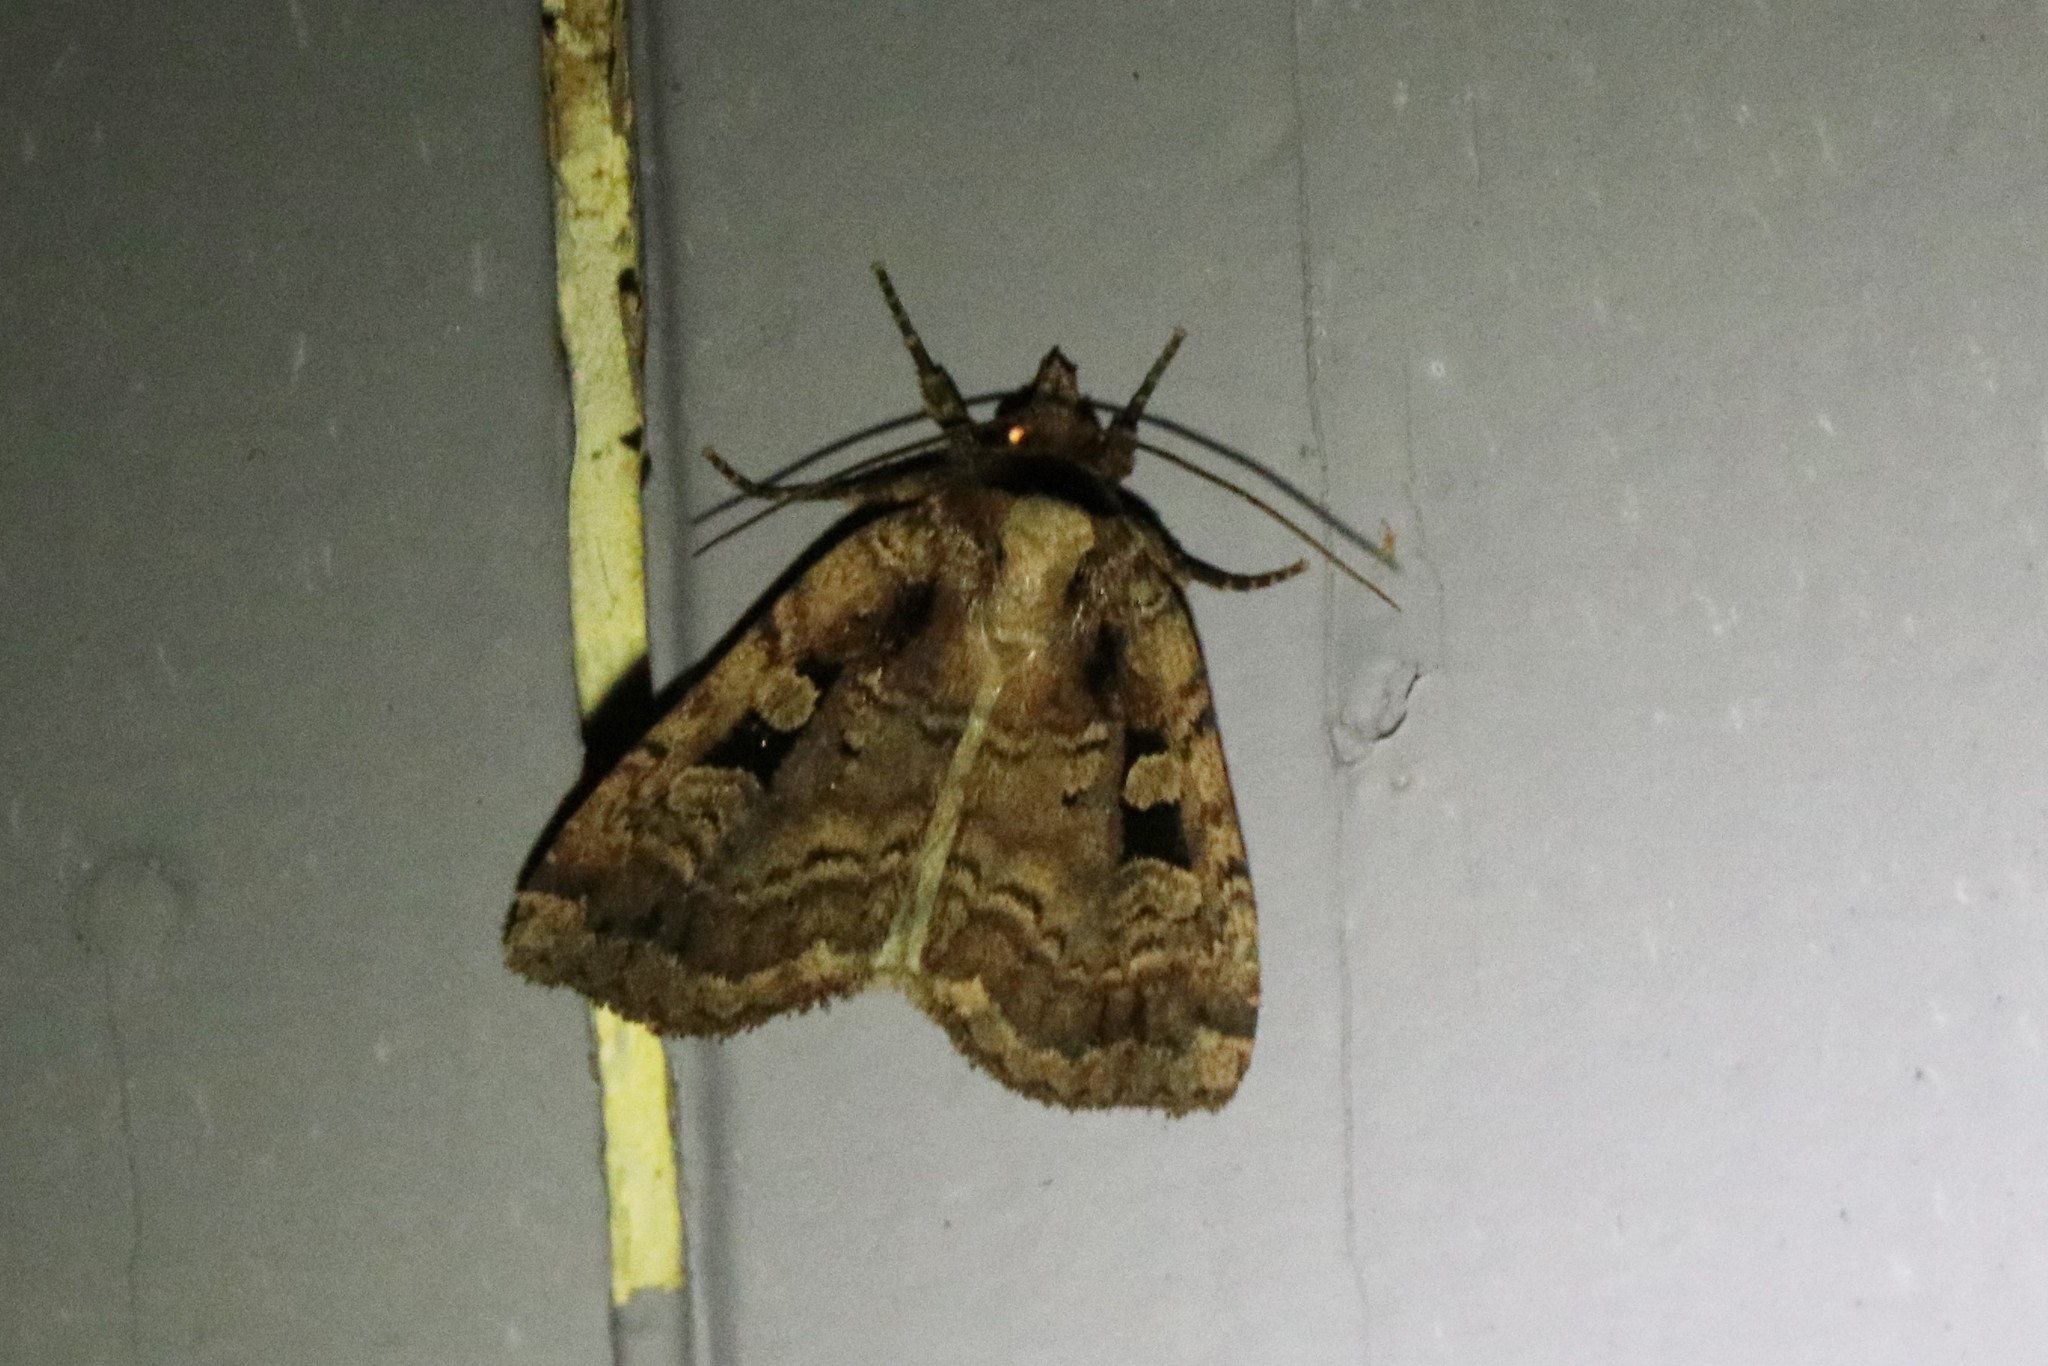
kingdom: Animalia
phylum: Arthropoda
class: Insecta
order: Lepidoptera
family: Noctuidae
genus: Eueretagrotis
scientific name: Eueretagrotis perattentus
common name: Two-spot dart moth
